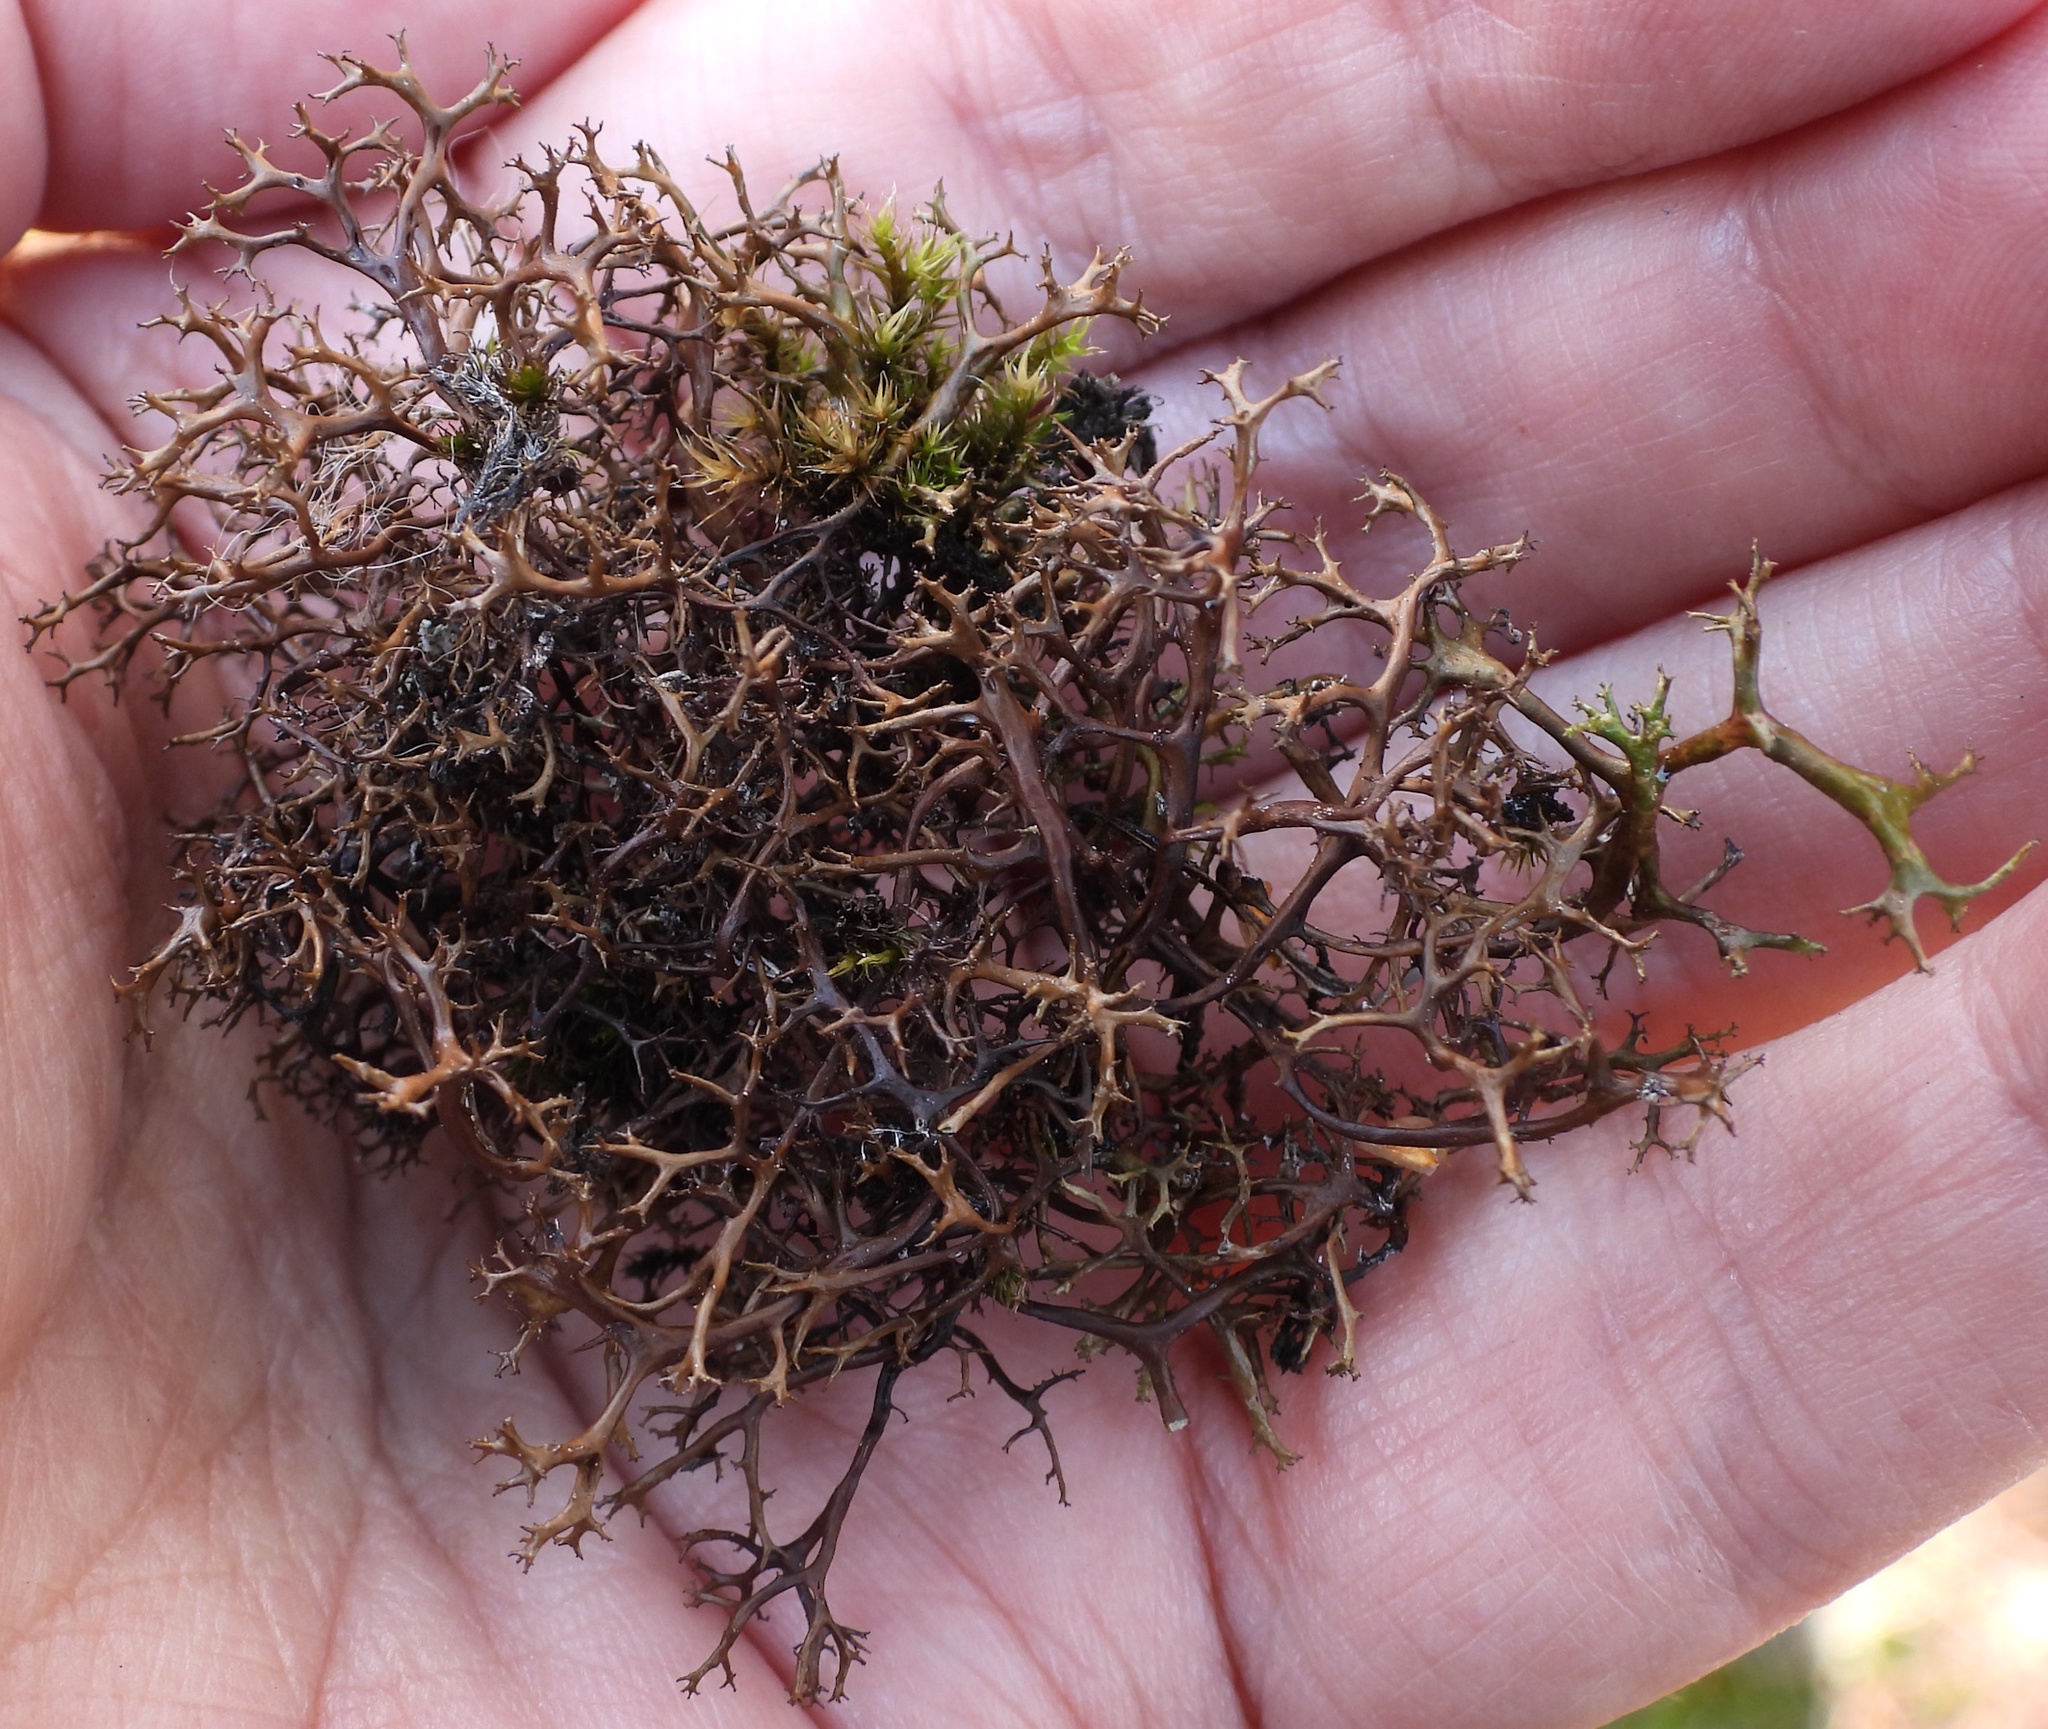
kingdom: Fungi
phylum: Ascomycota
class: Lecanoromycetes
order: Lecanorales
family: Parmeliaceae
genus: Cetraria
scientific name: Cetraria aculeata
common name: Spiny heath lichen
